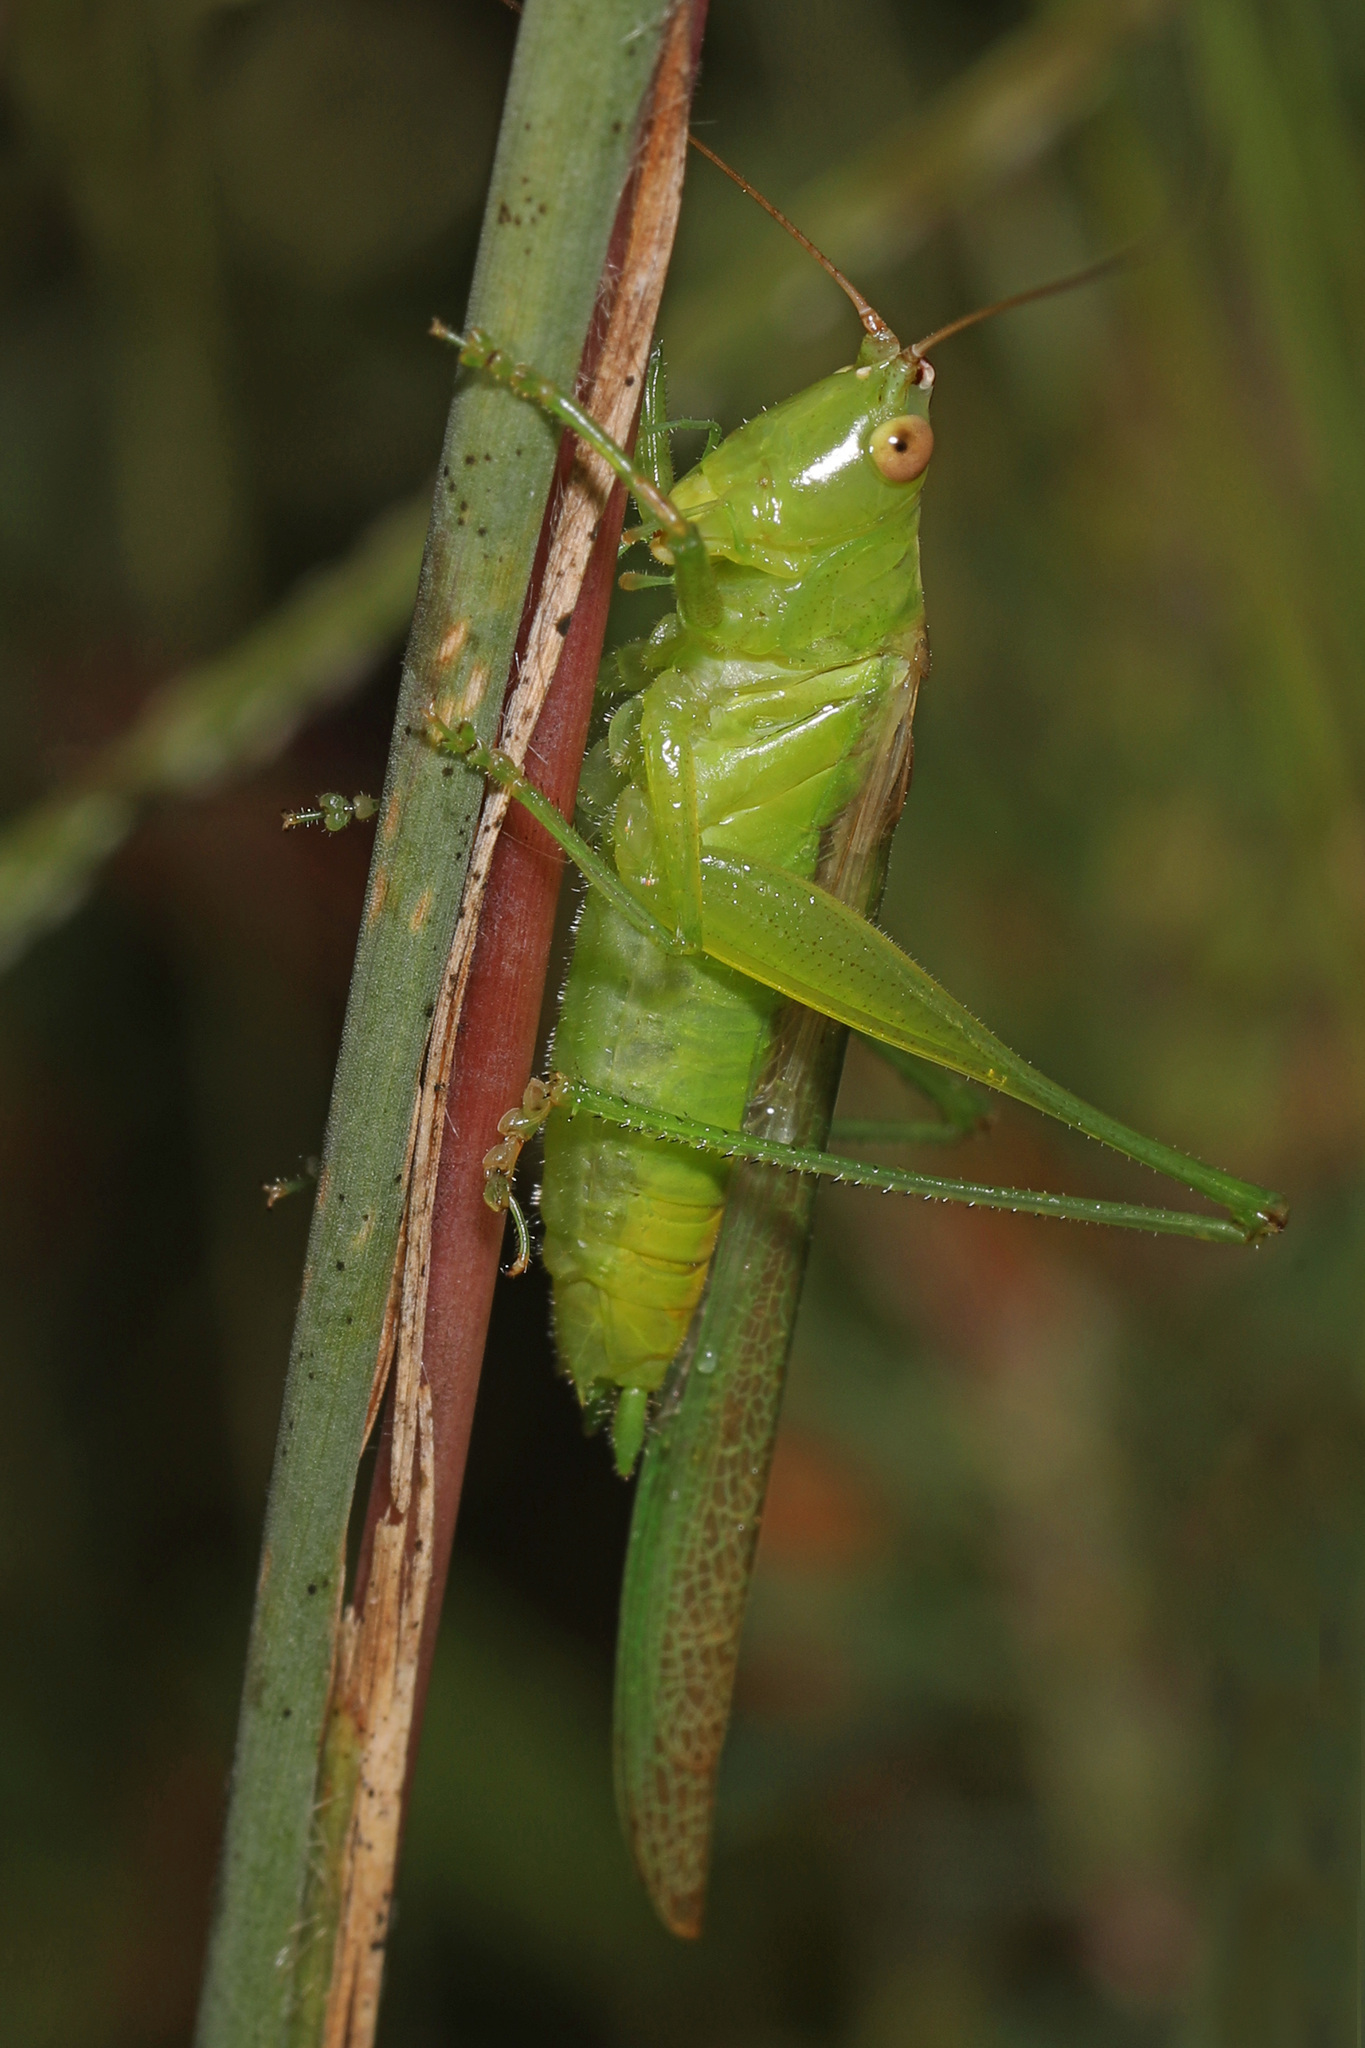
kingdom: Animalia
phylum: Arthropoda
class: Insecta
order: Orthoptera
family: Tettigoniidae
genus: Conocephalus
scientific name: Conocephalus fasciatus
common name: Slender meadow katydid
